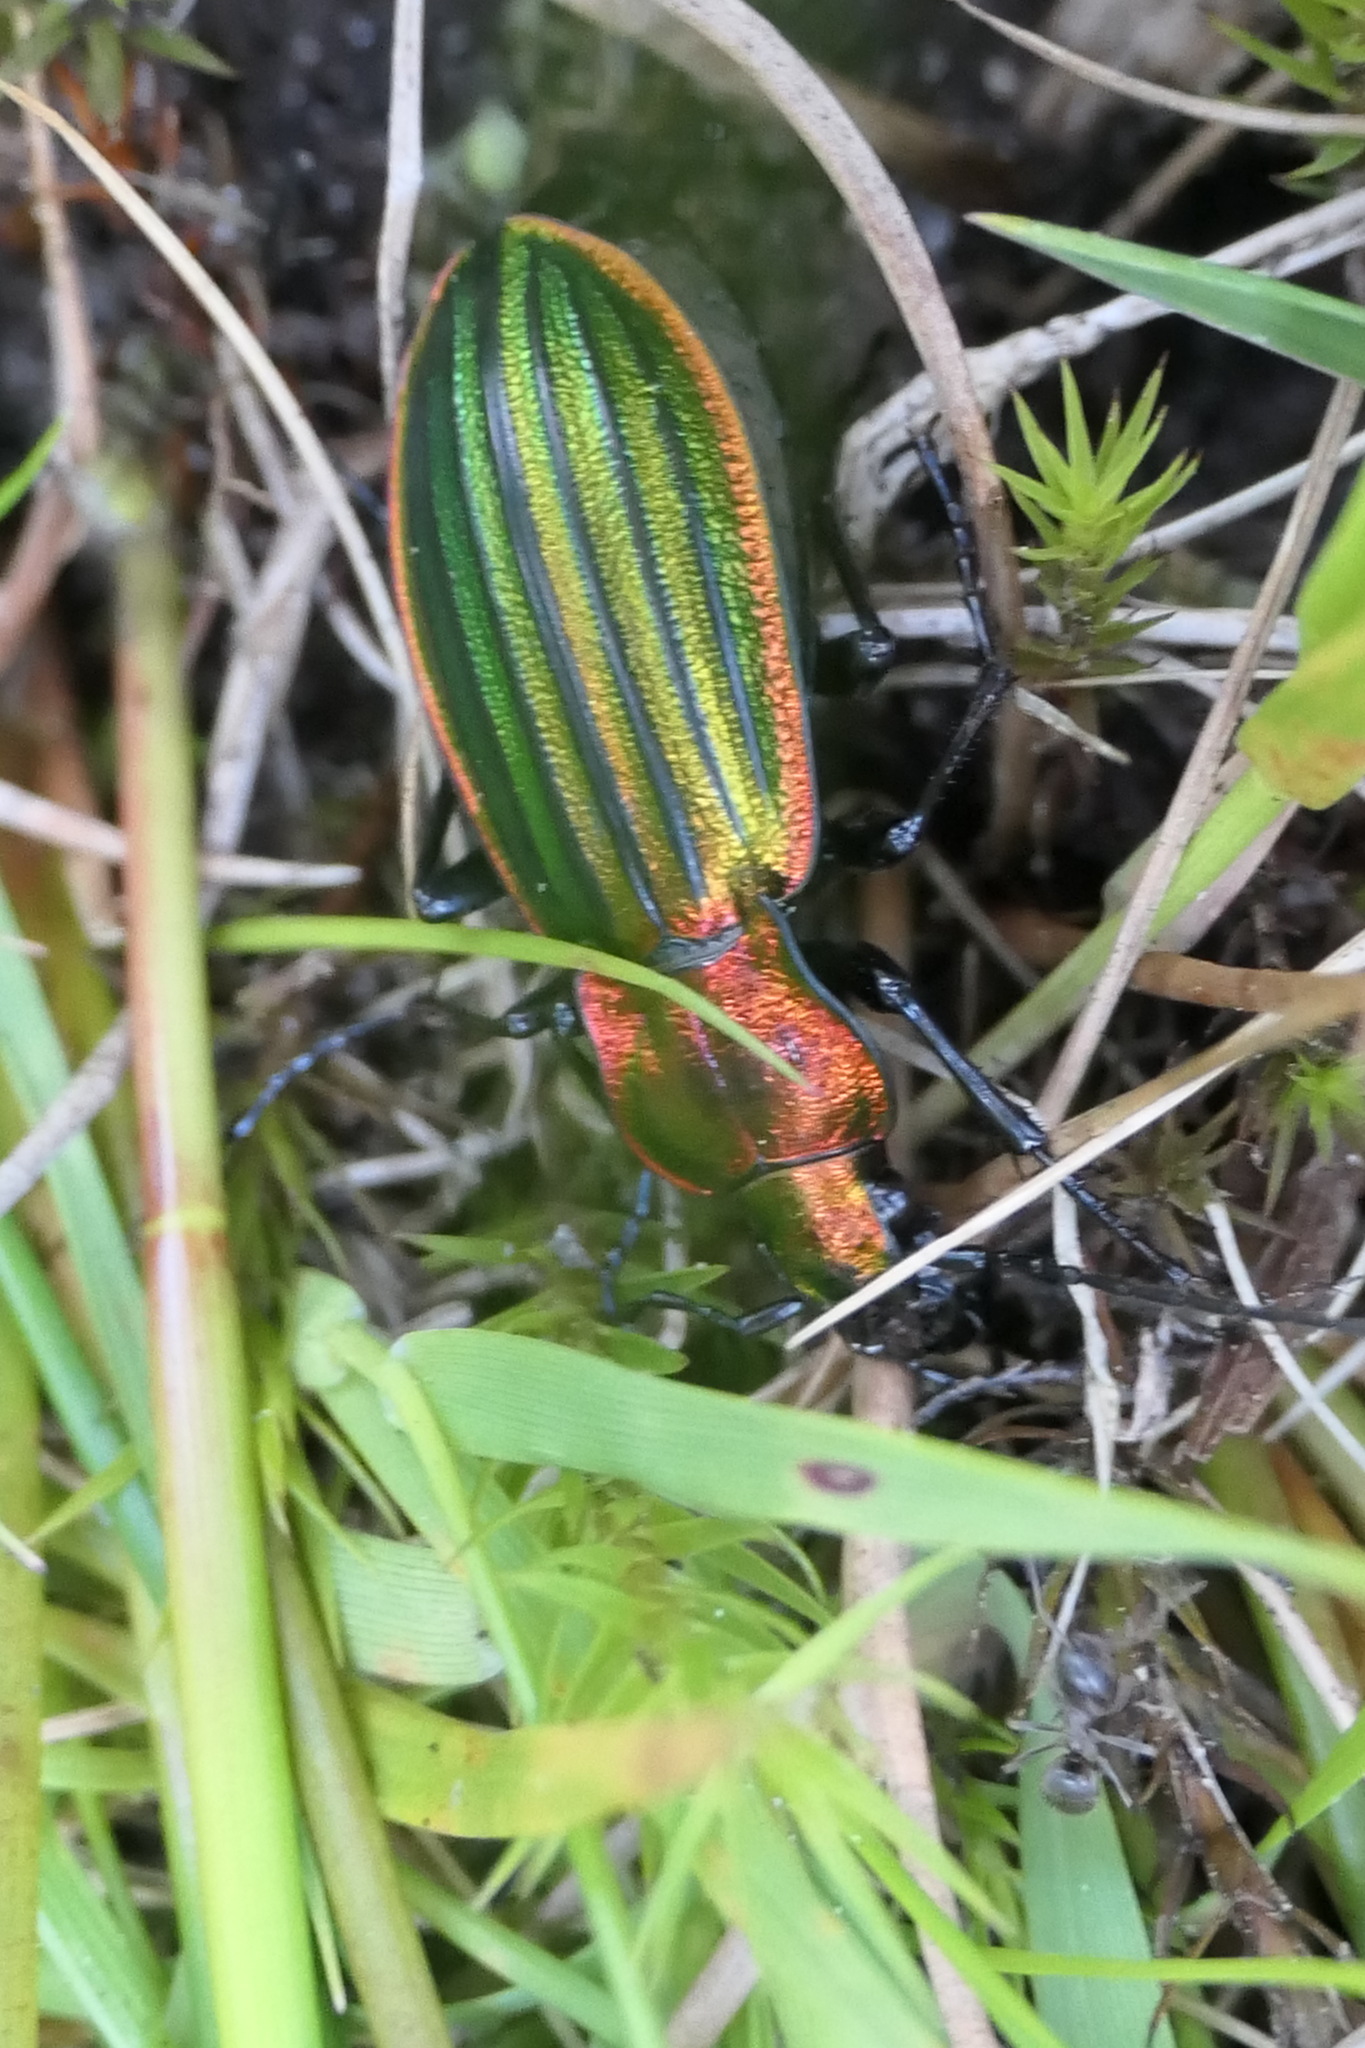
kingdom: Animalia
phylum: Arthropoda
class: Insecta
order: Coleoptera
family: Carabidae
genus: Carabus
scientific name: Carabus strasseri
